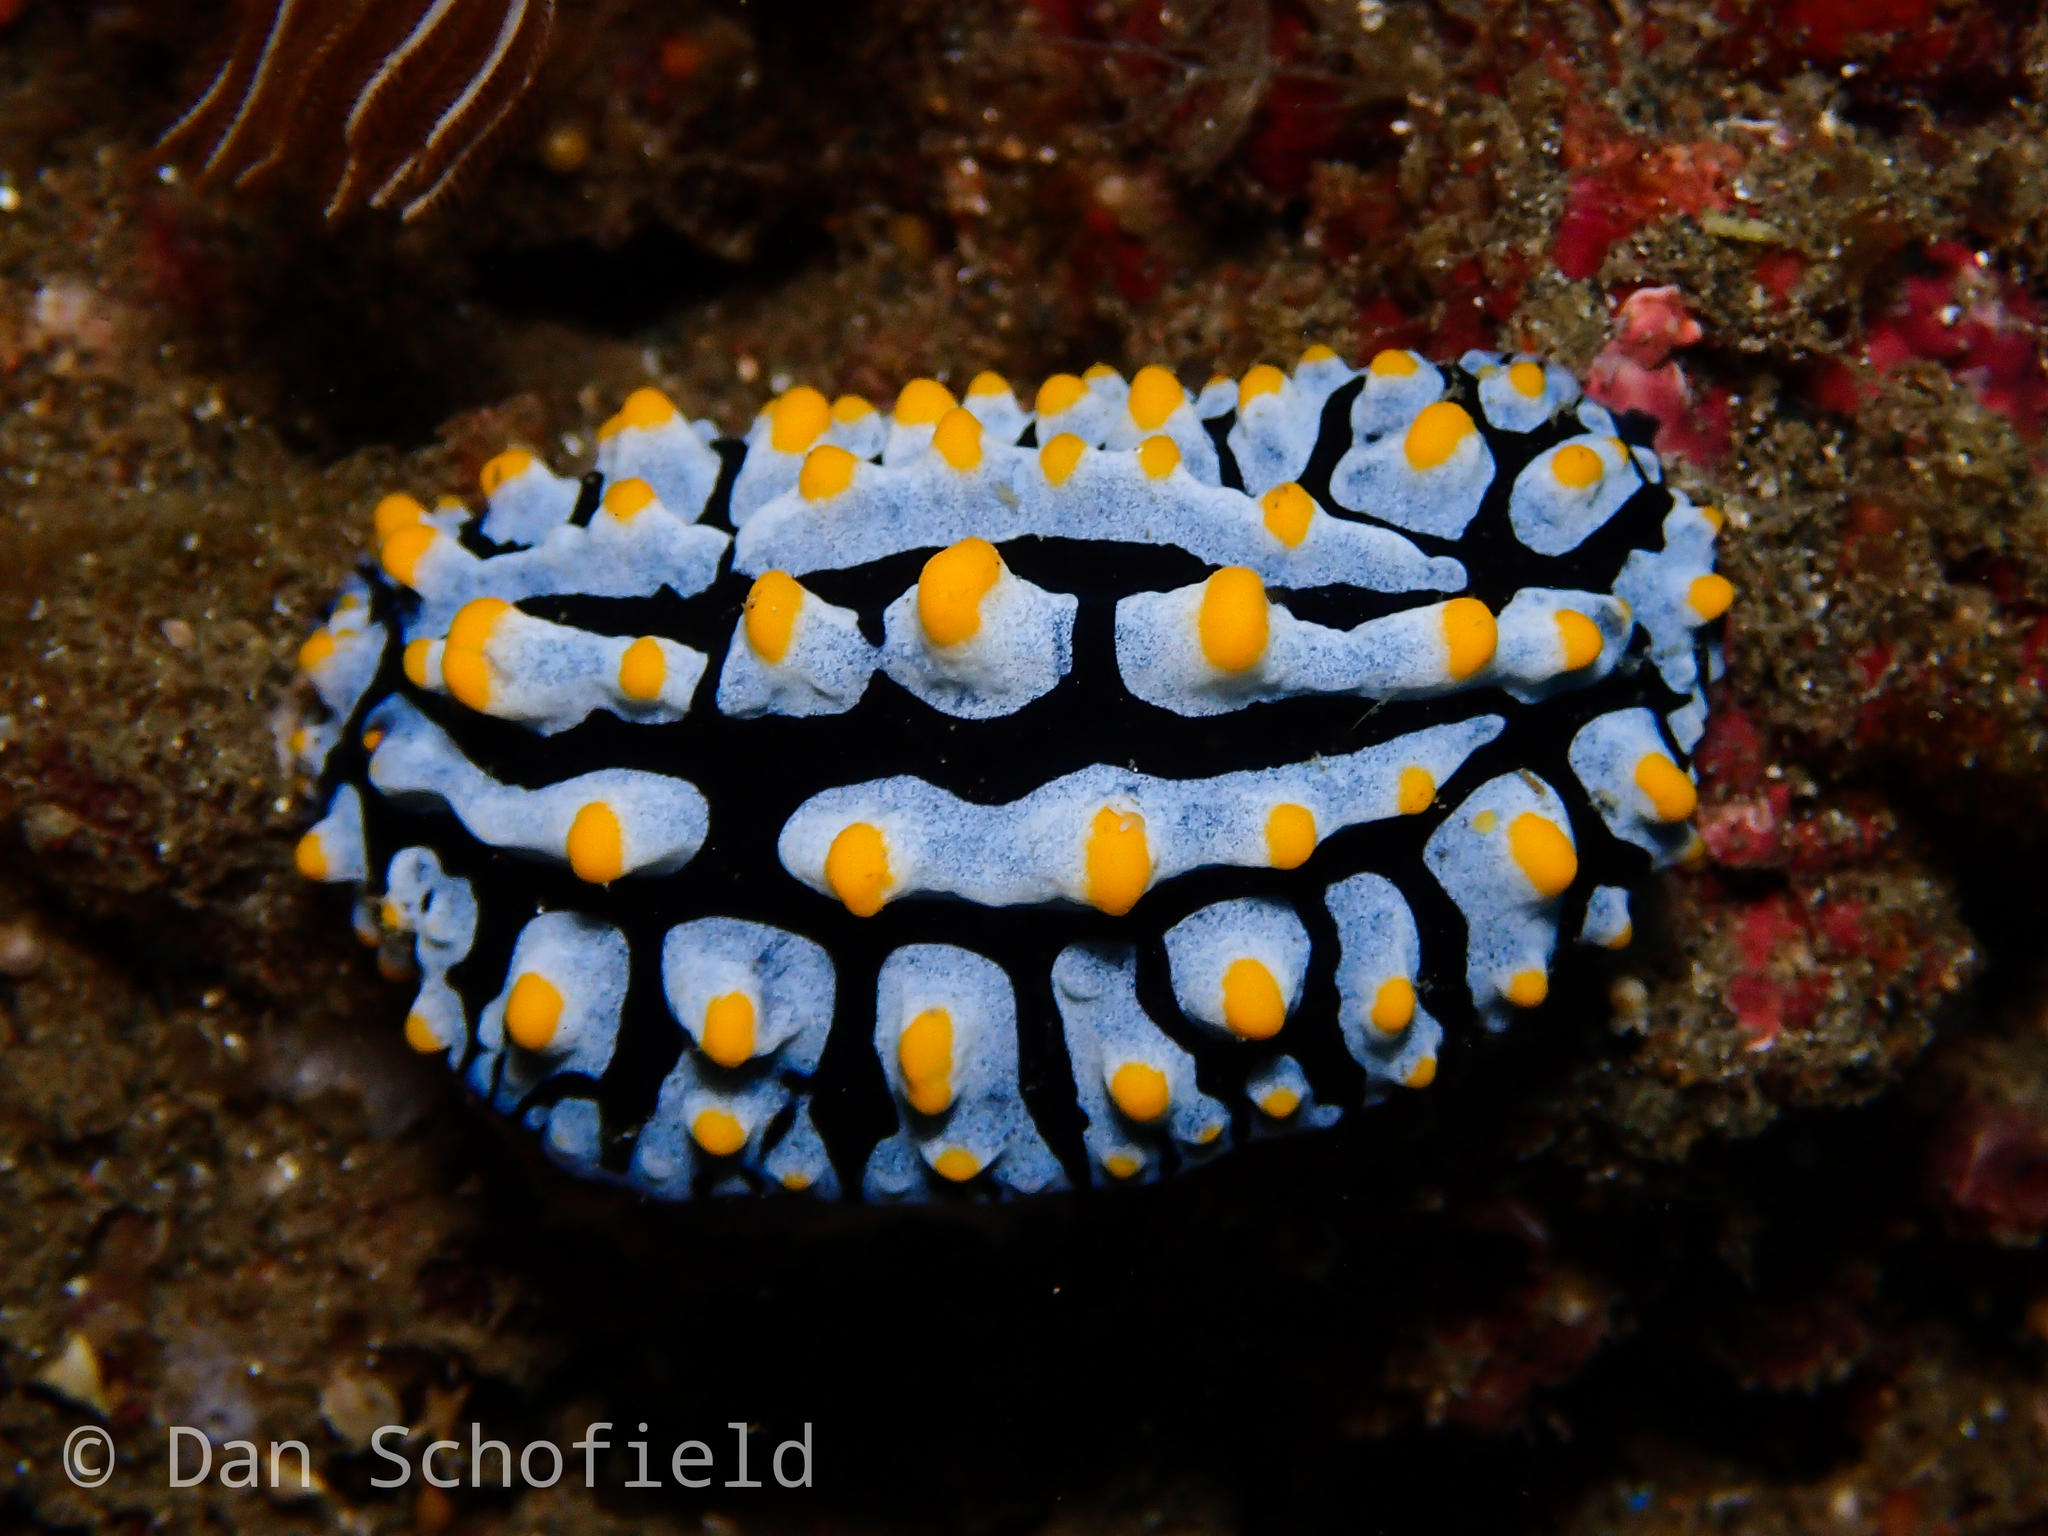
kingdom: Animalia
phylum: Mollusca
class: Gastropoda
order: Nudibranchia
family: Phyllidiidae
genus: Phyllidia
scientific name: Phyllidia varicosa
